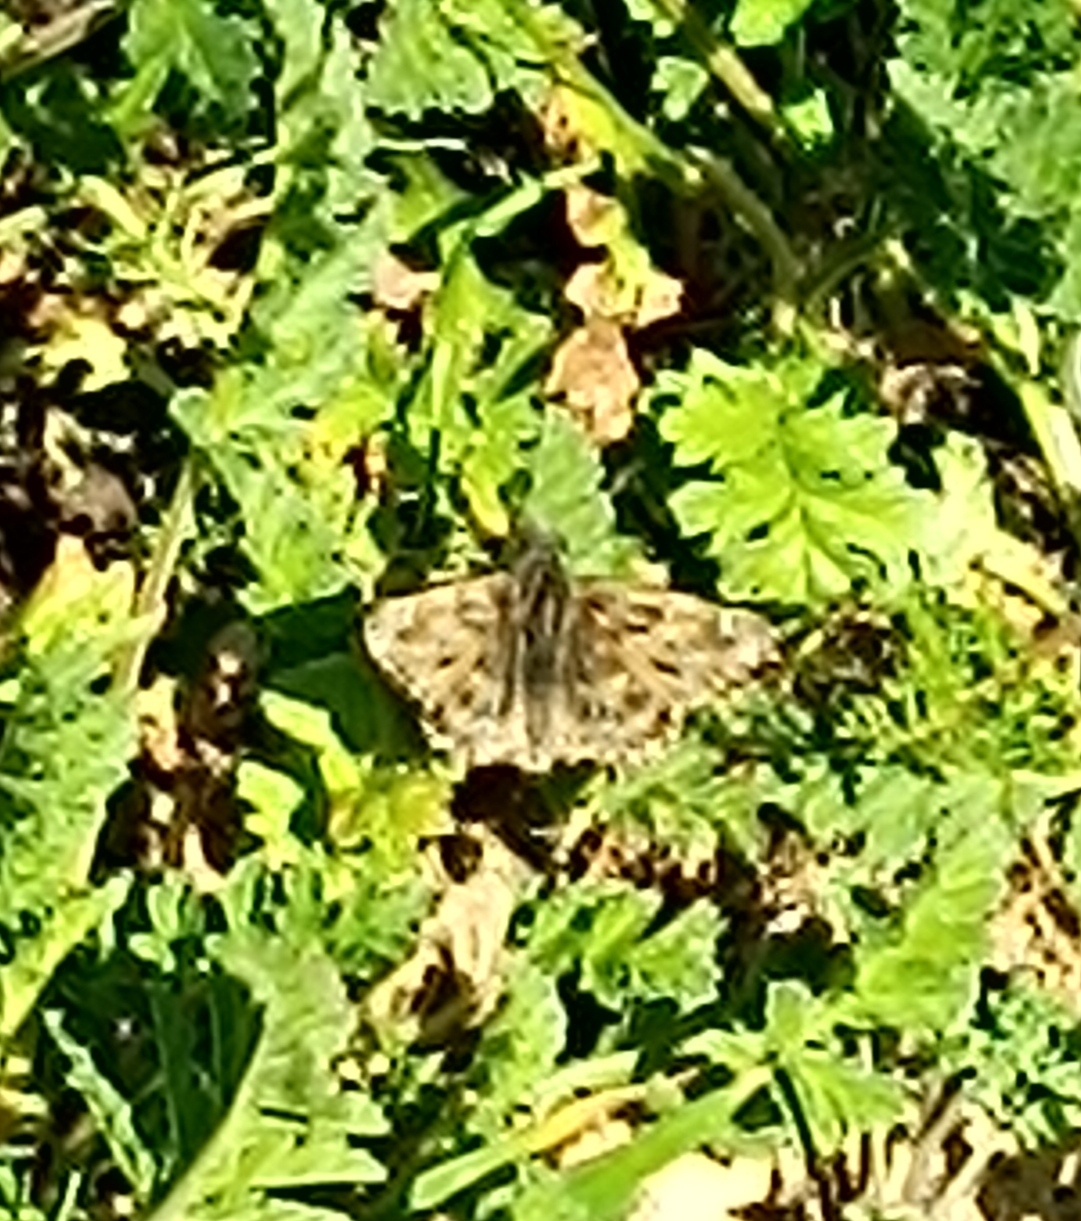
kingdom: Animalia
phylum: Arthropoda
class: Insecta
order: Lepidoptera
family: Hesperiidae
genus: Carcharodus
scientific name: Carcharodus alceae
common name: Mallow skipper
